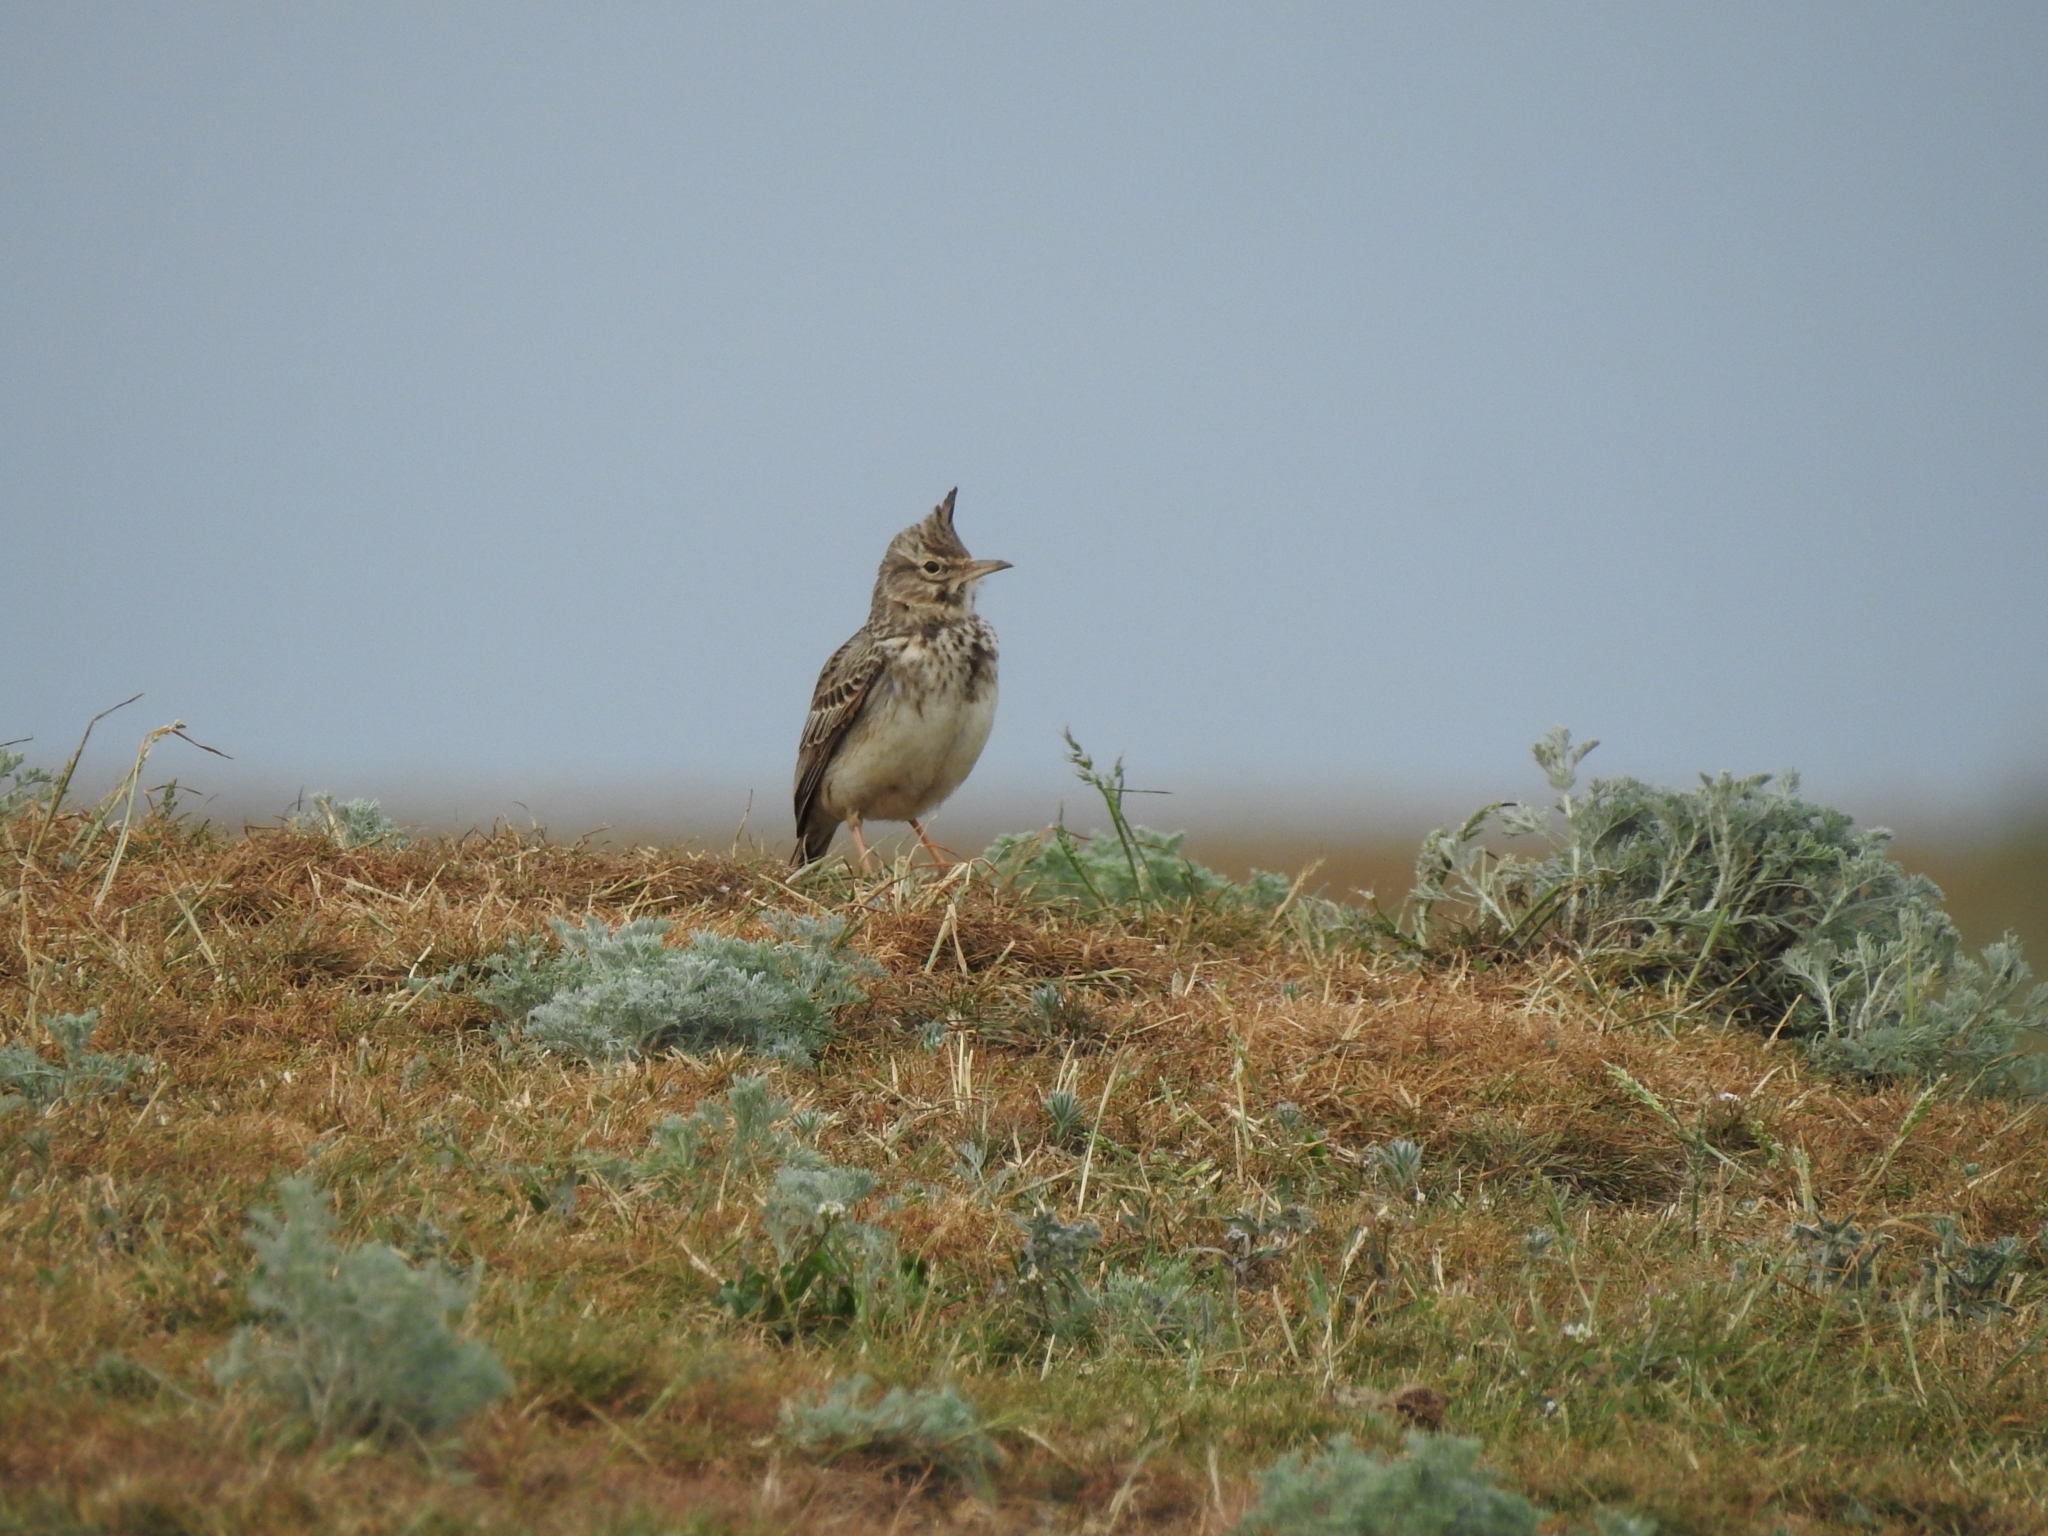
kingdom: Animalia
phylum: Chordata
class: Aves
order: Passeriformes
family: Alaudidae
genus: Galerida
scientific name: Galerida cristata
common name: Crested lark
